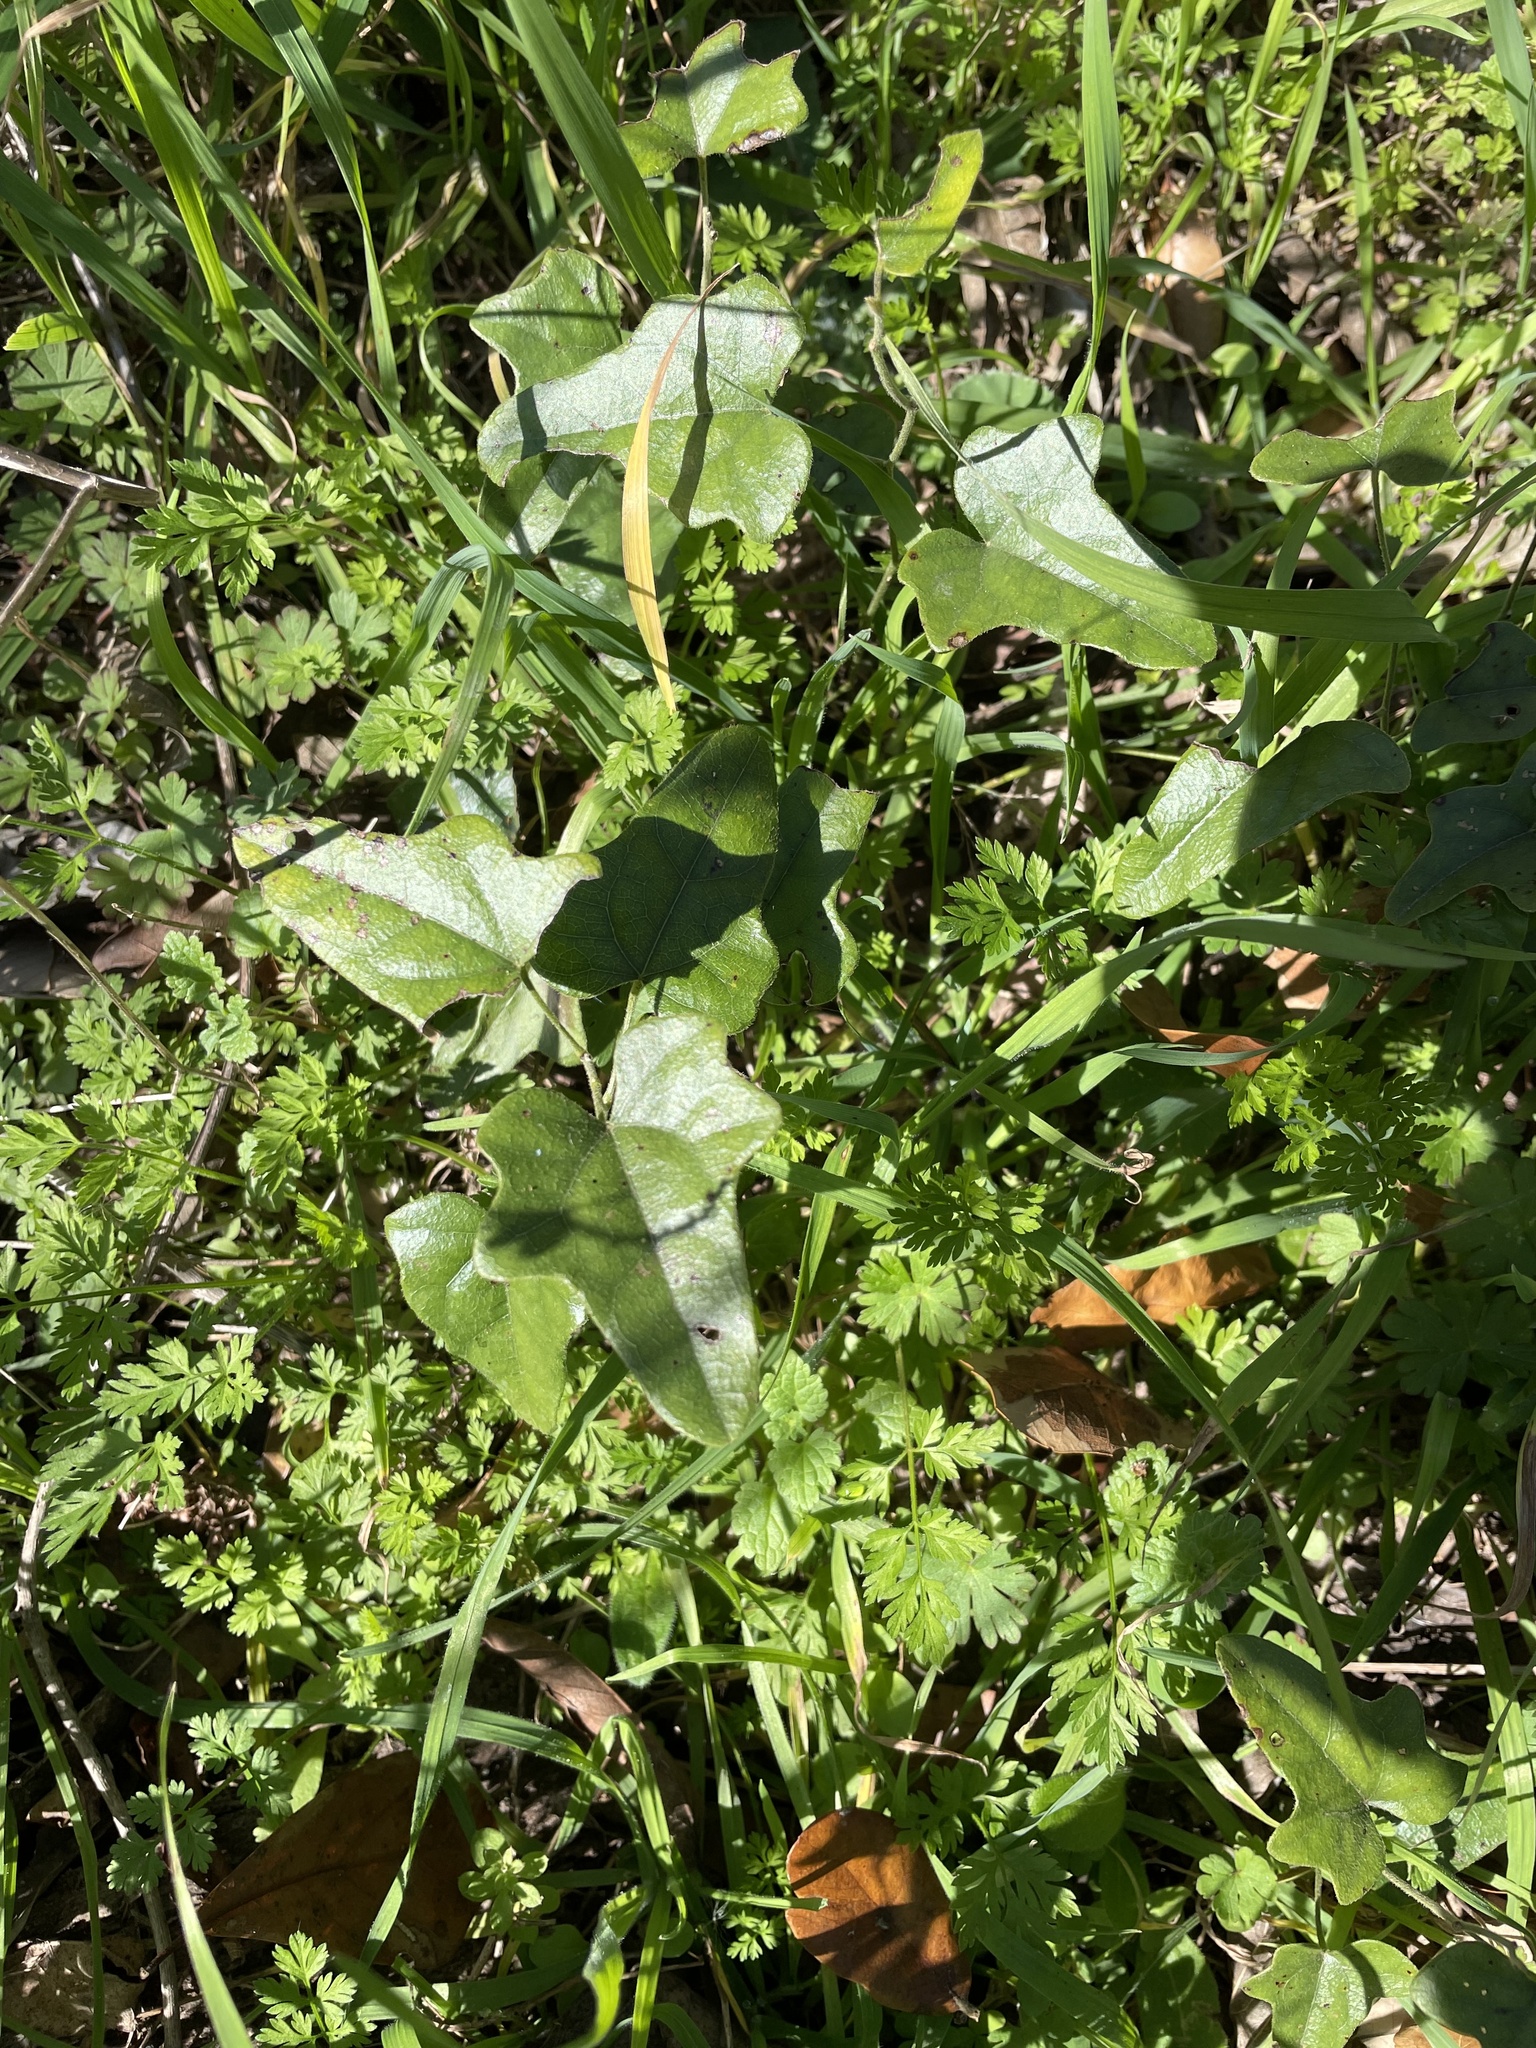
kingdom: Plantae
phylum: Tracheophyta
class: Magnoliopsida
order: Ranunculales
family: Menispermaceae
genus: Cocculus
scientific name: Cocculus carolinus
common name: Carolina moonseed
